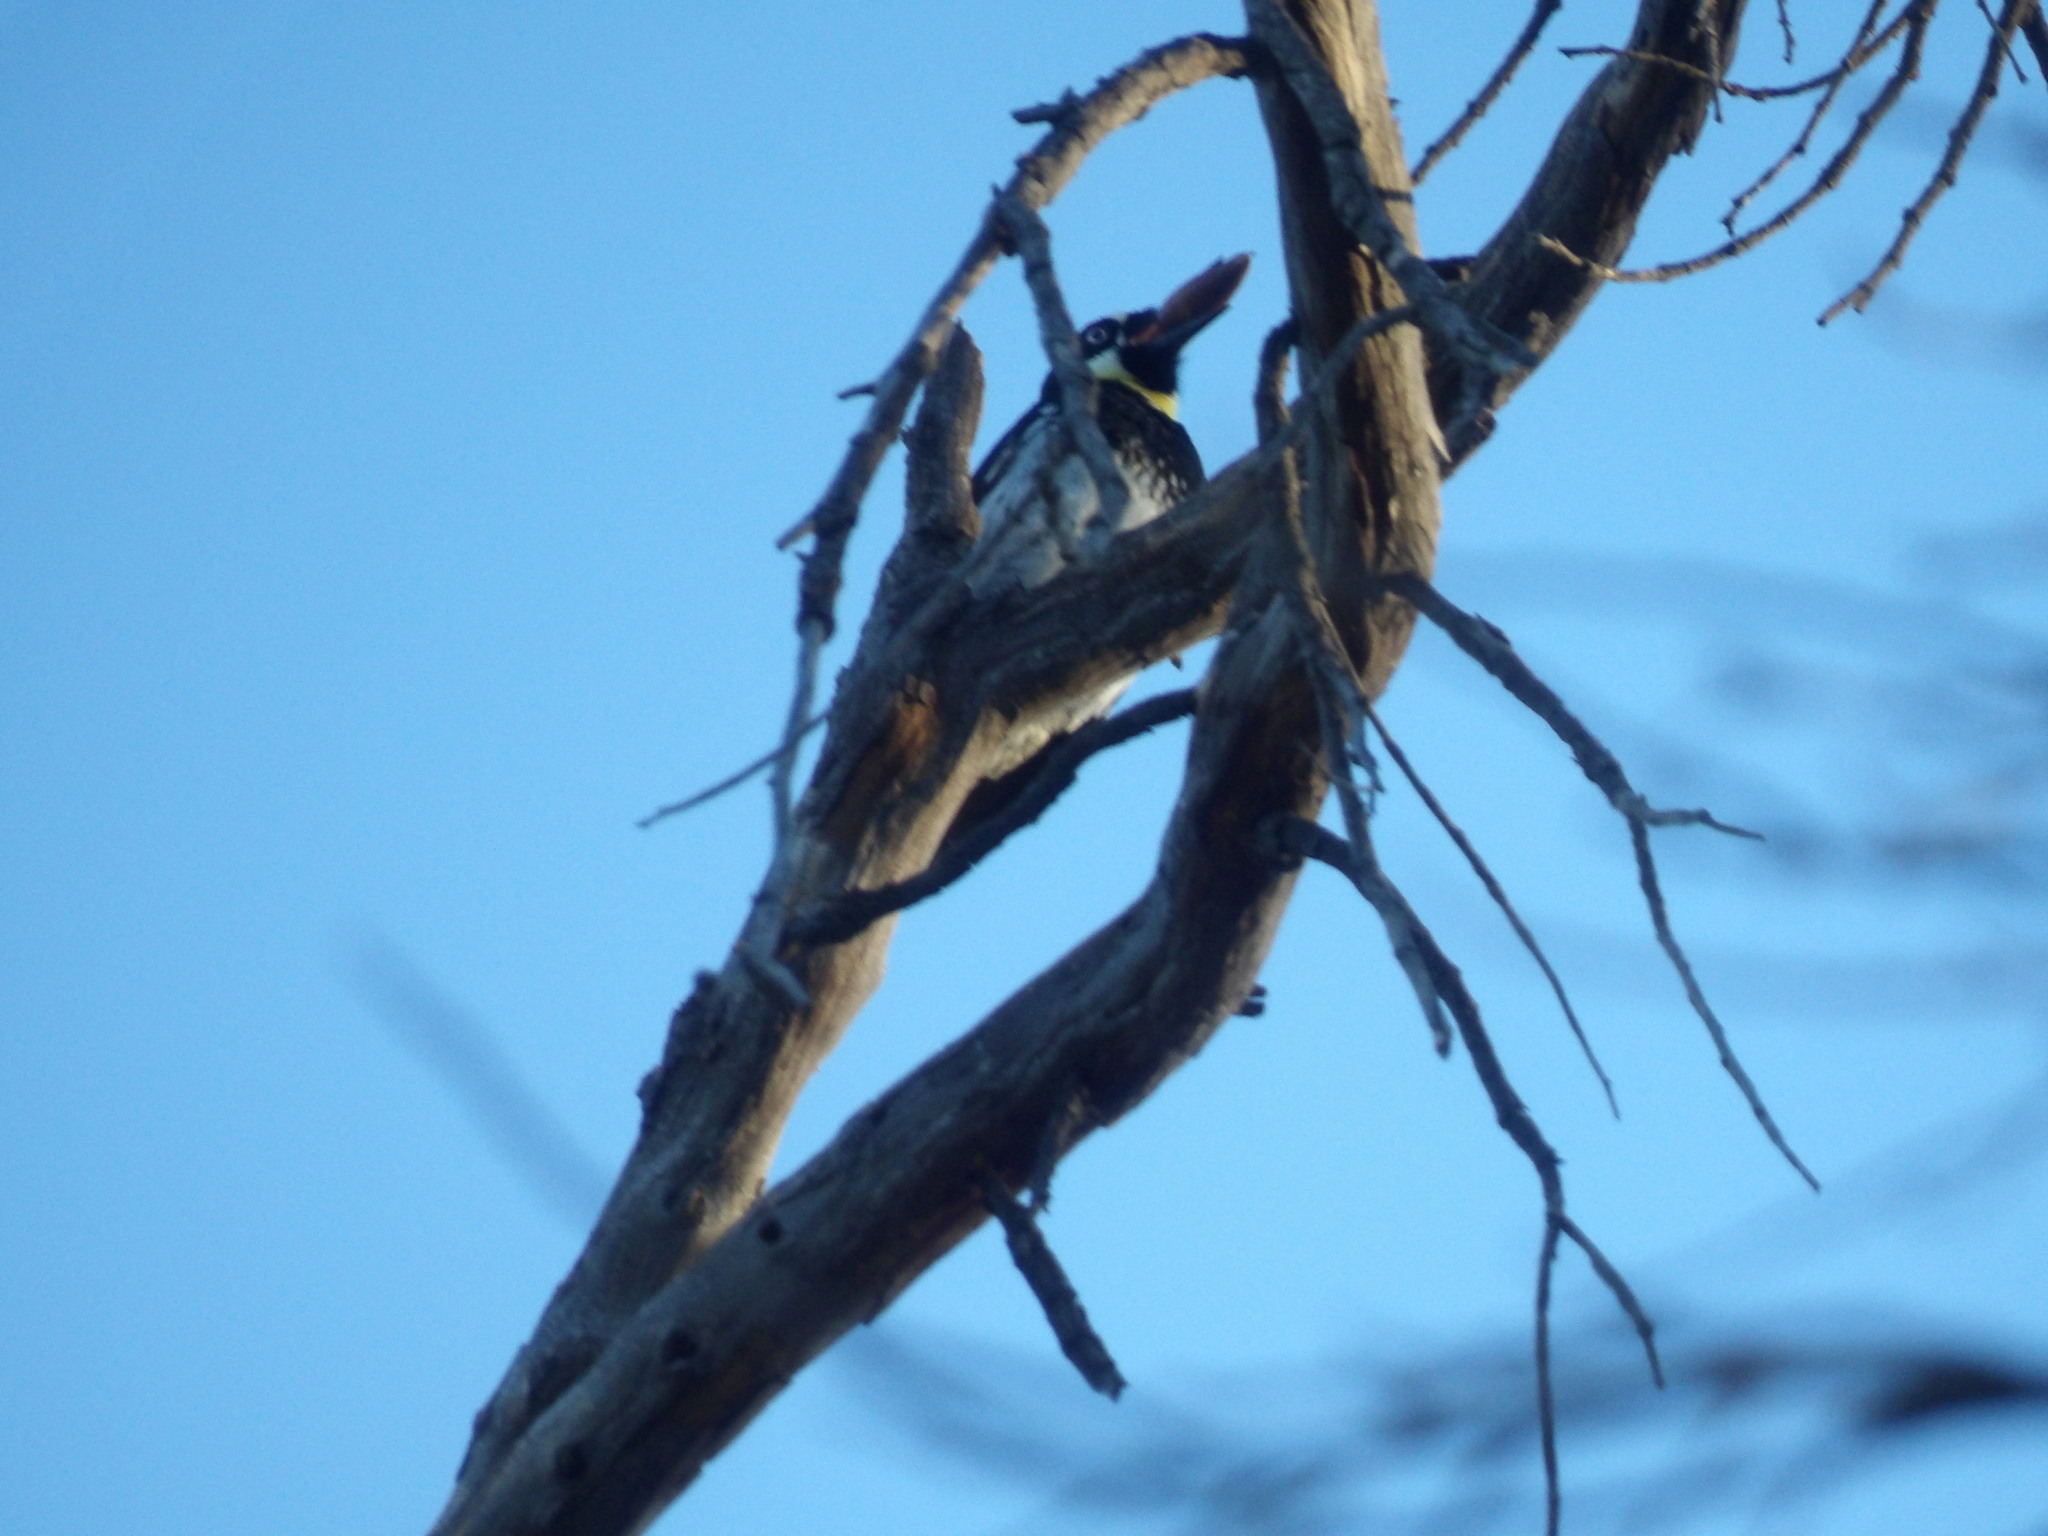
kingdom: Animalia
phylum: Chordata
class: Aves
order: Piciformes
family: Picidae
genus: Melanerpes
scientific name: Melanerpes formicivorus
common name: Acorn woodpecker
